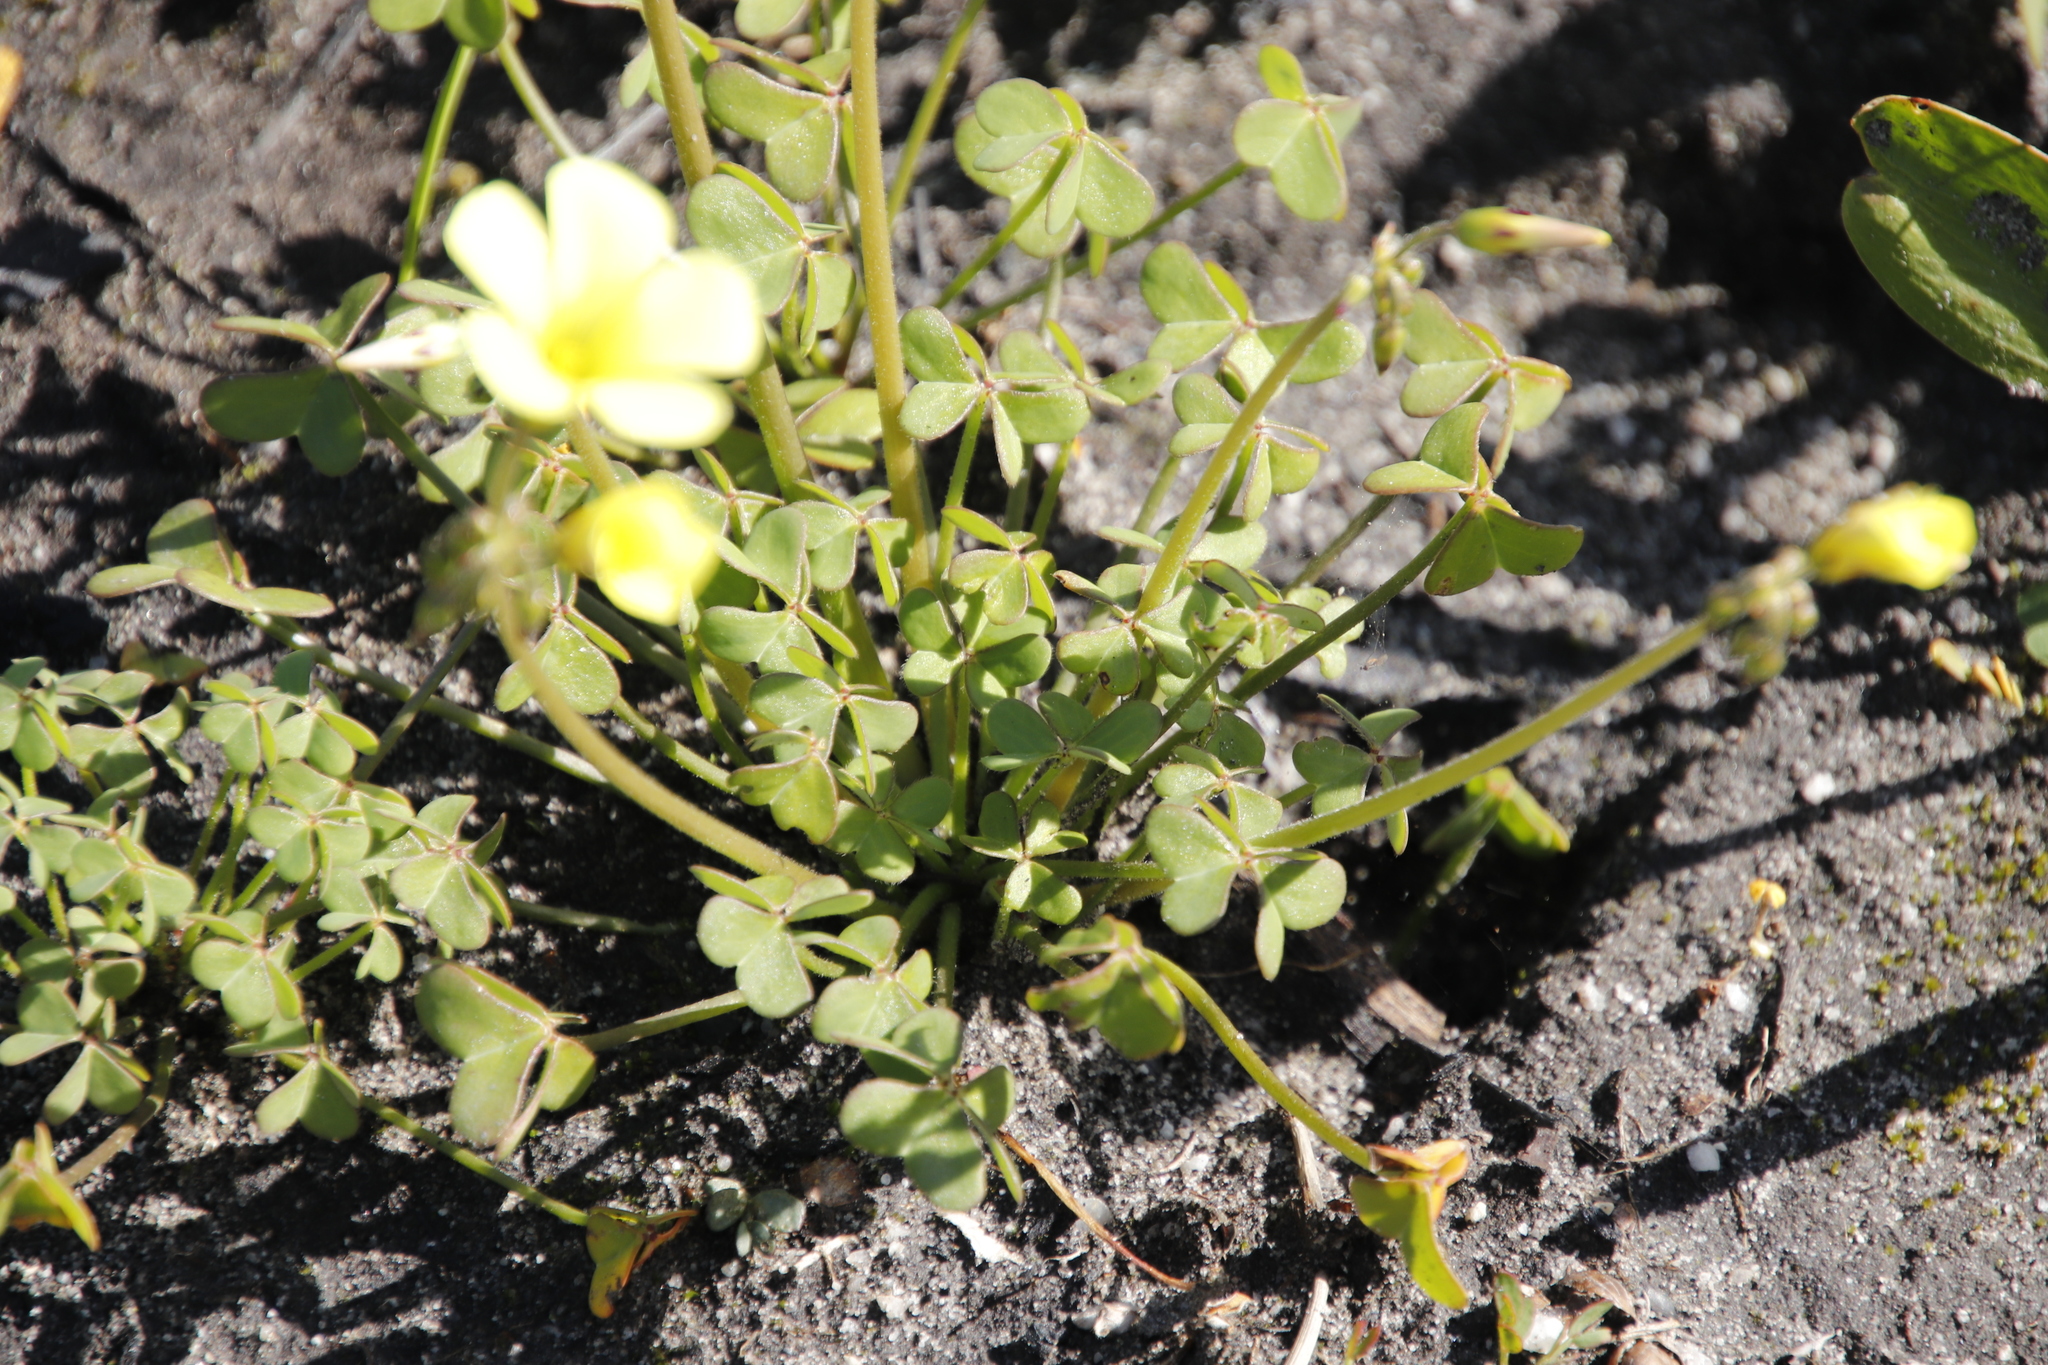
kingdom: Plantae
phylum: Tracheophyta
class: Magnoliopsida
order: Oxalidales
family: Oxalidaceae
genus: Oxalis
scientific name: Oxalis pes-caprae
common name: Bermuda-buttercup
